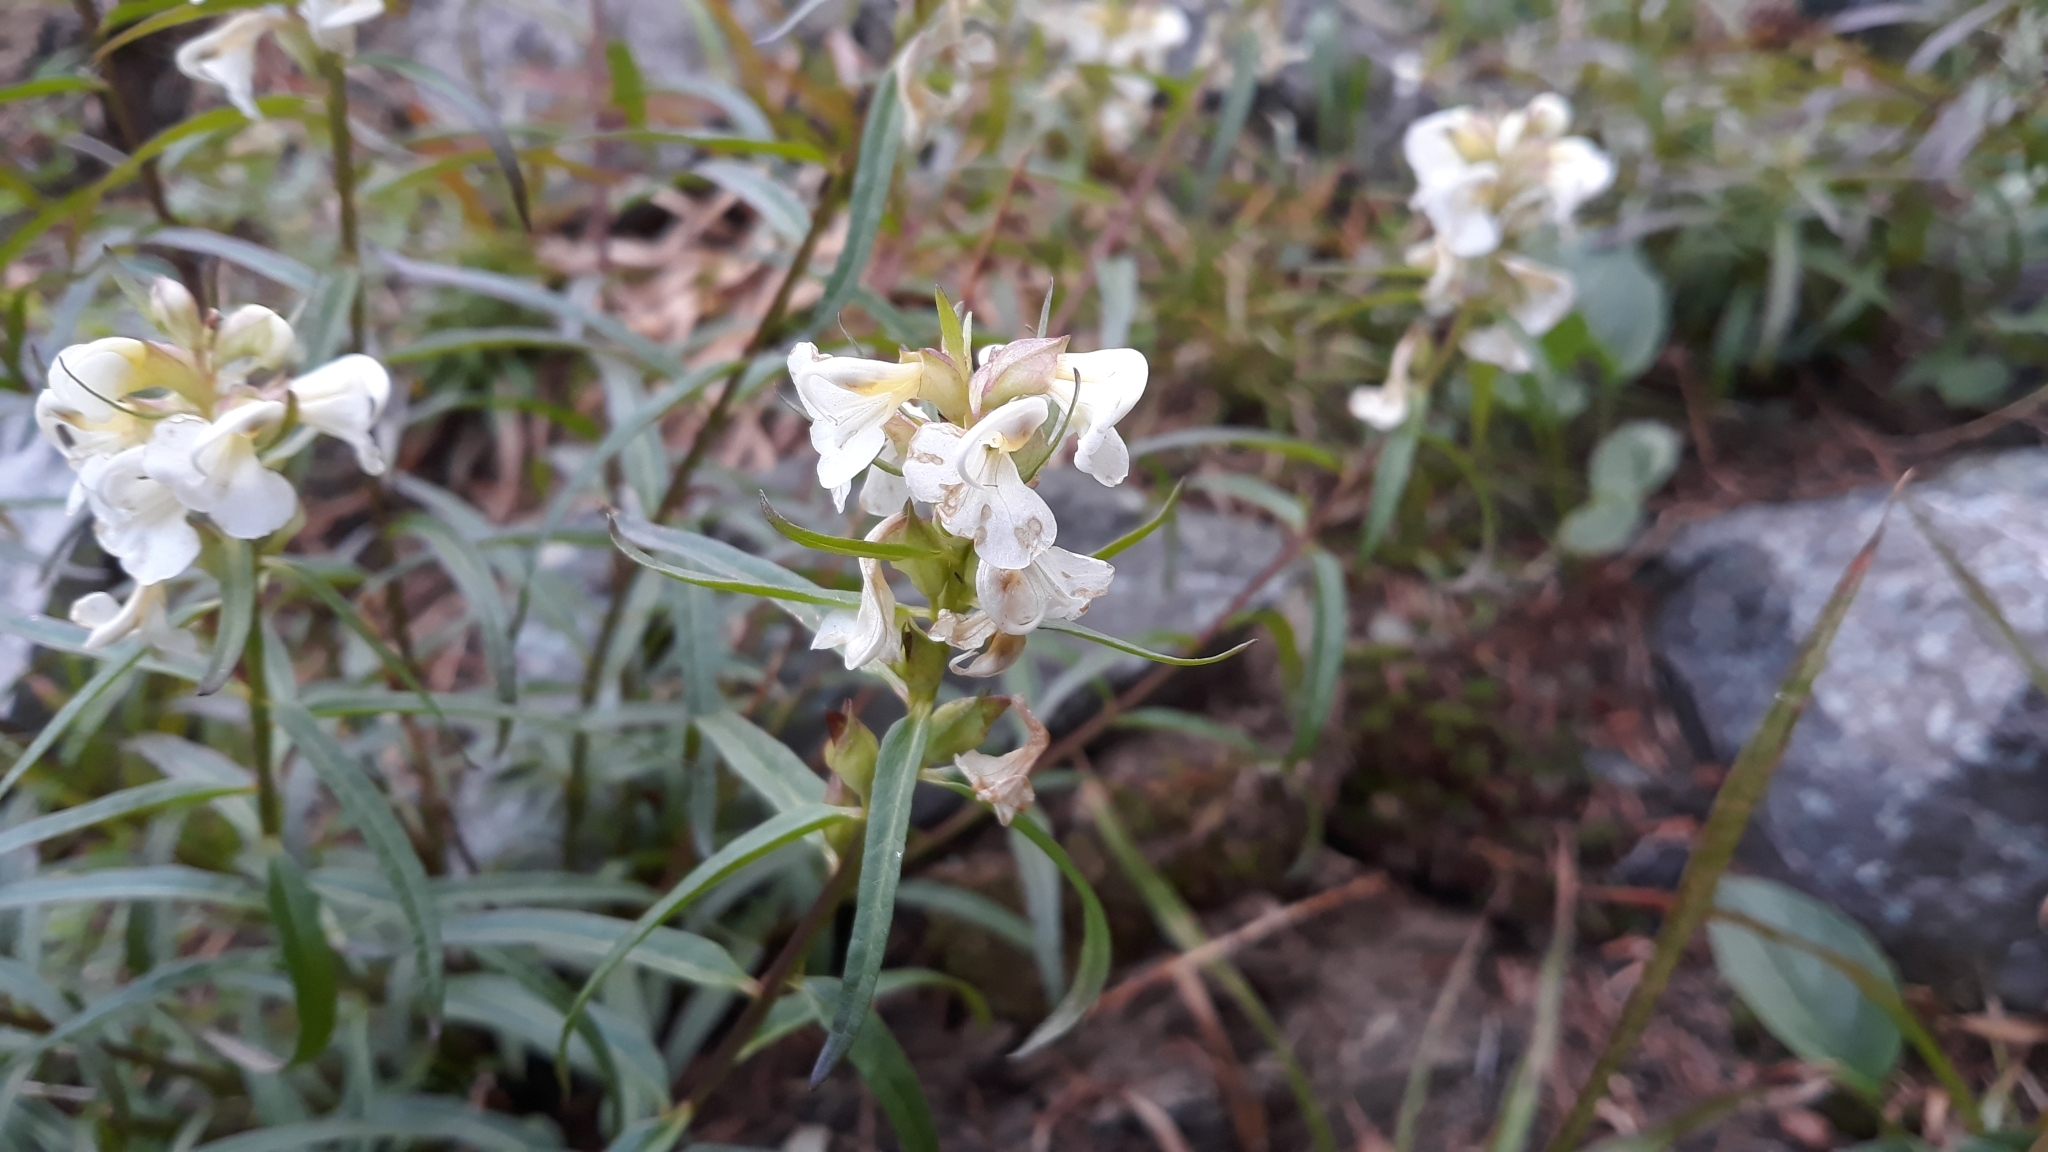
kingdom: Plantae
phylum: Tracheophyta
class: Magnoliopsida
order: Lamiales
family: Orobanchaceae
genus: Pedicularis
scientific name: Pedicularis racemosa
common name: Leafy lousewort
